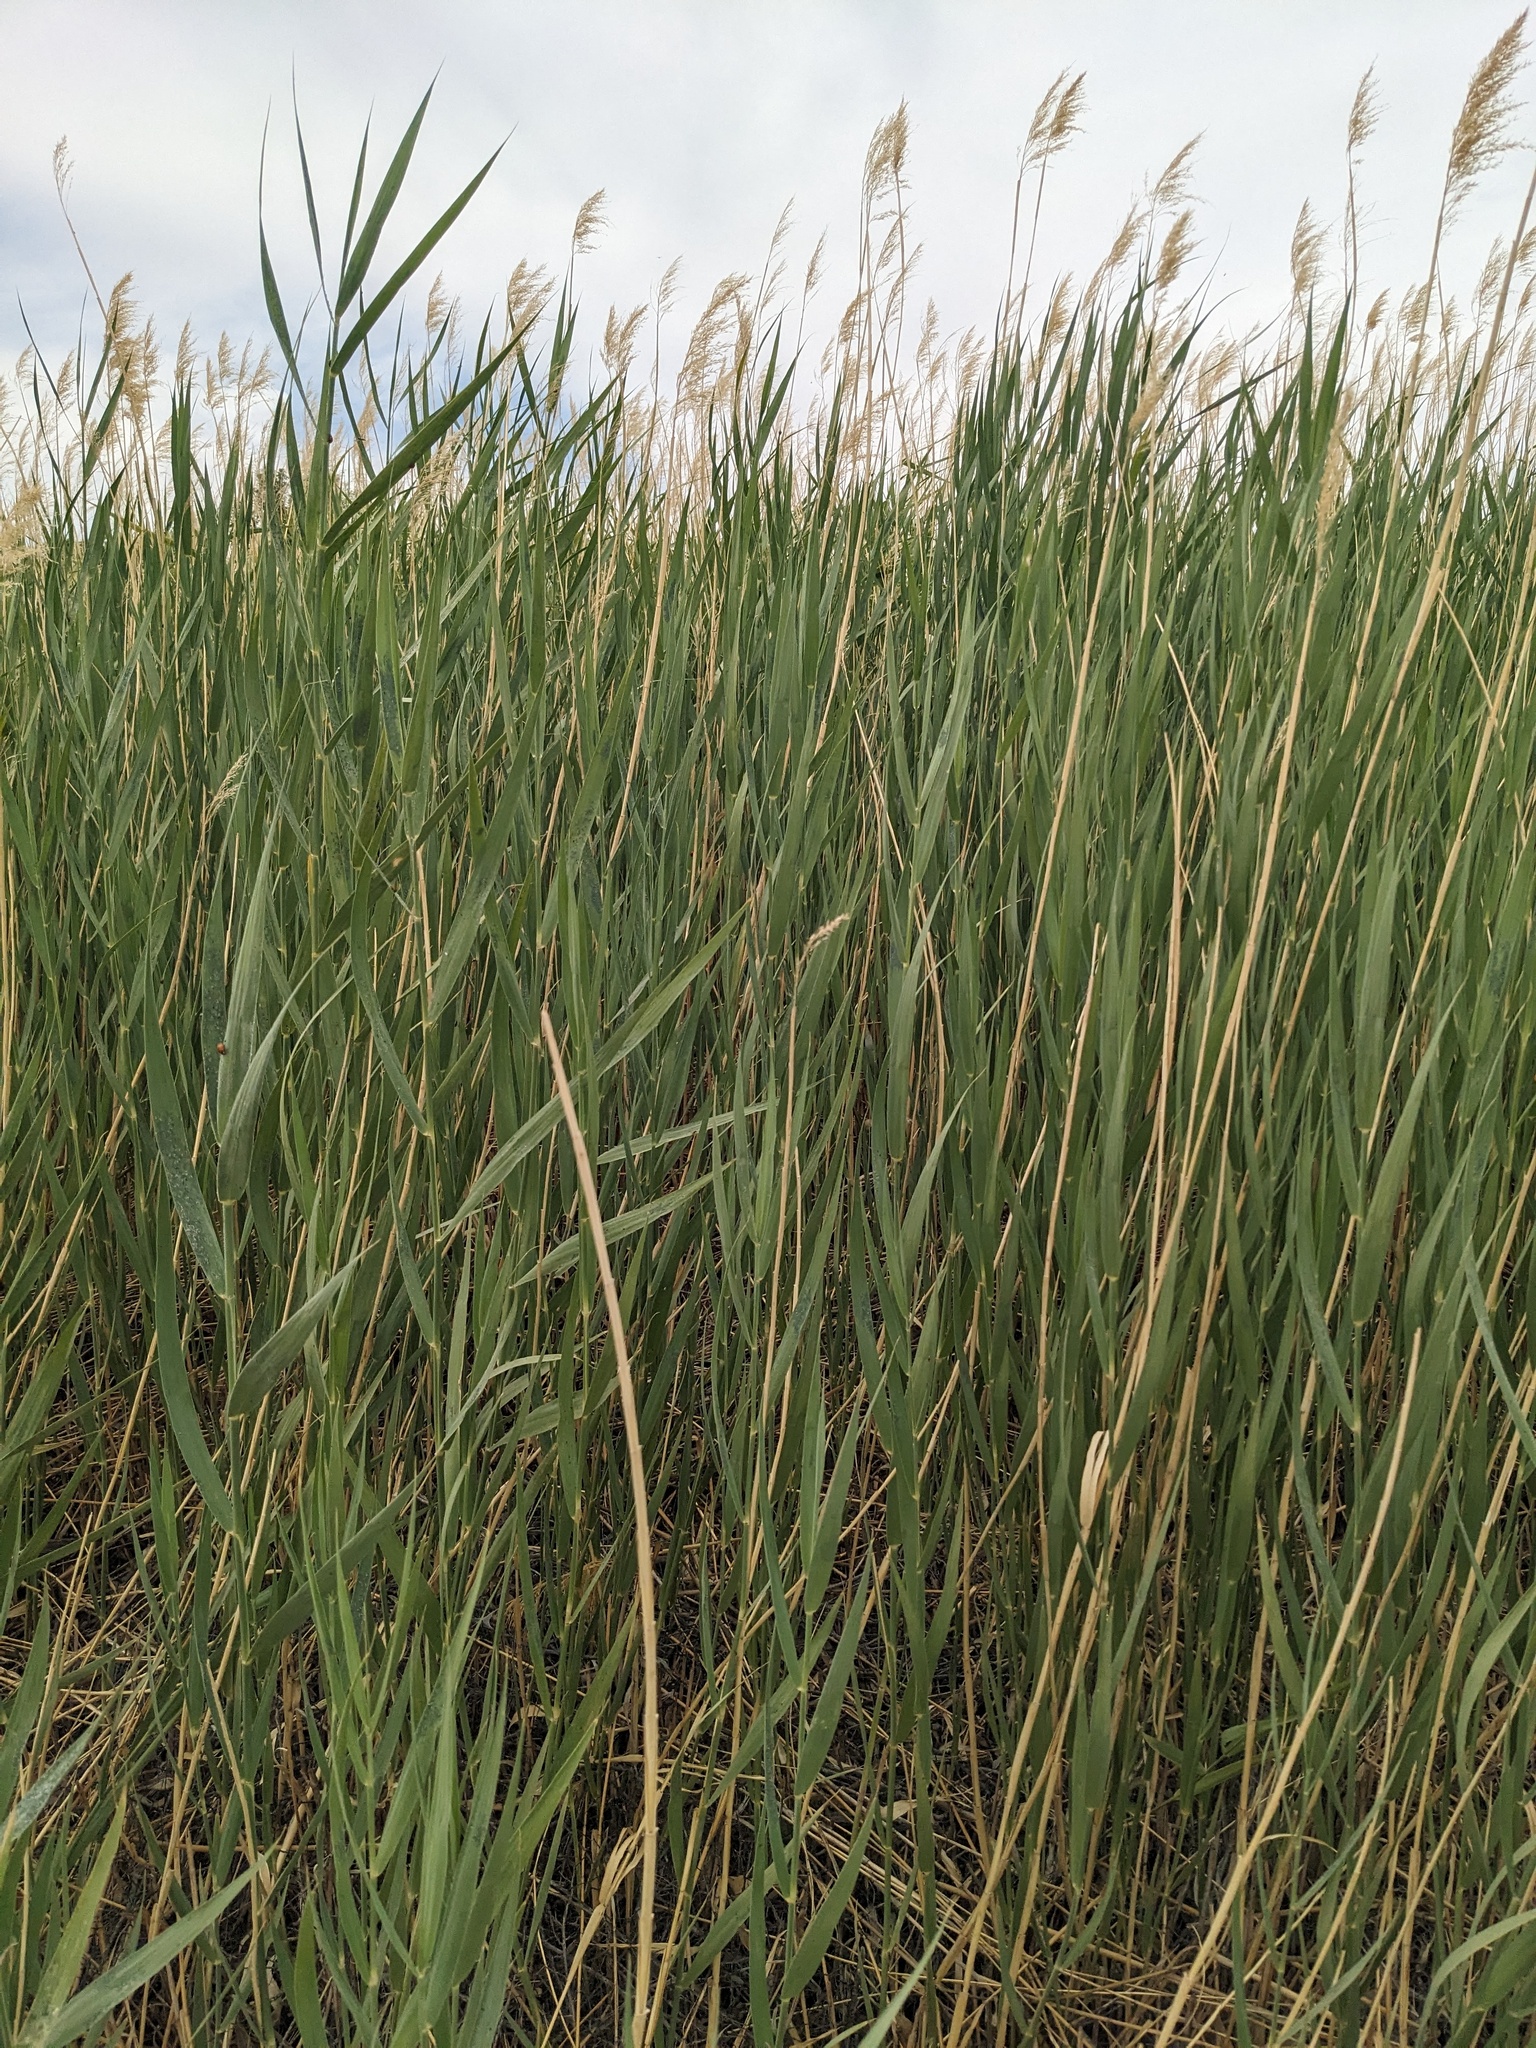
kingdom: Plantae
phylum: Tracheophyta
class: Liliopsida
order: Poales
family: Poaceae
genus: Phragmites
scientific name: Phragmites australis
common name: Common reed
